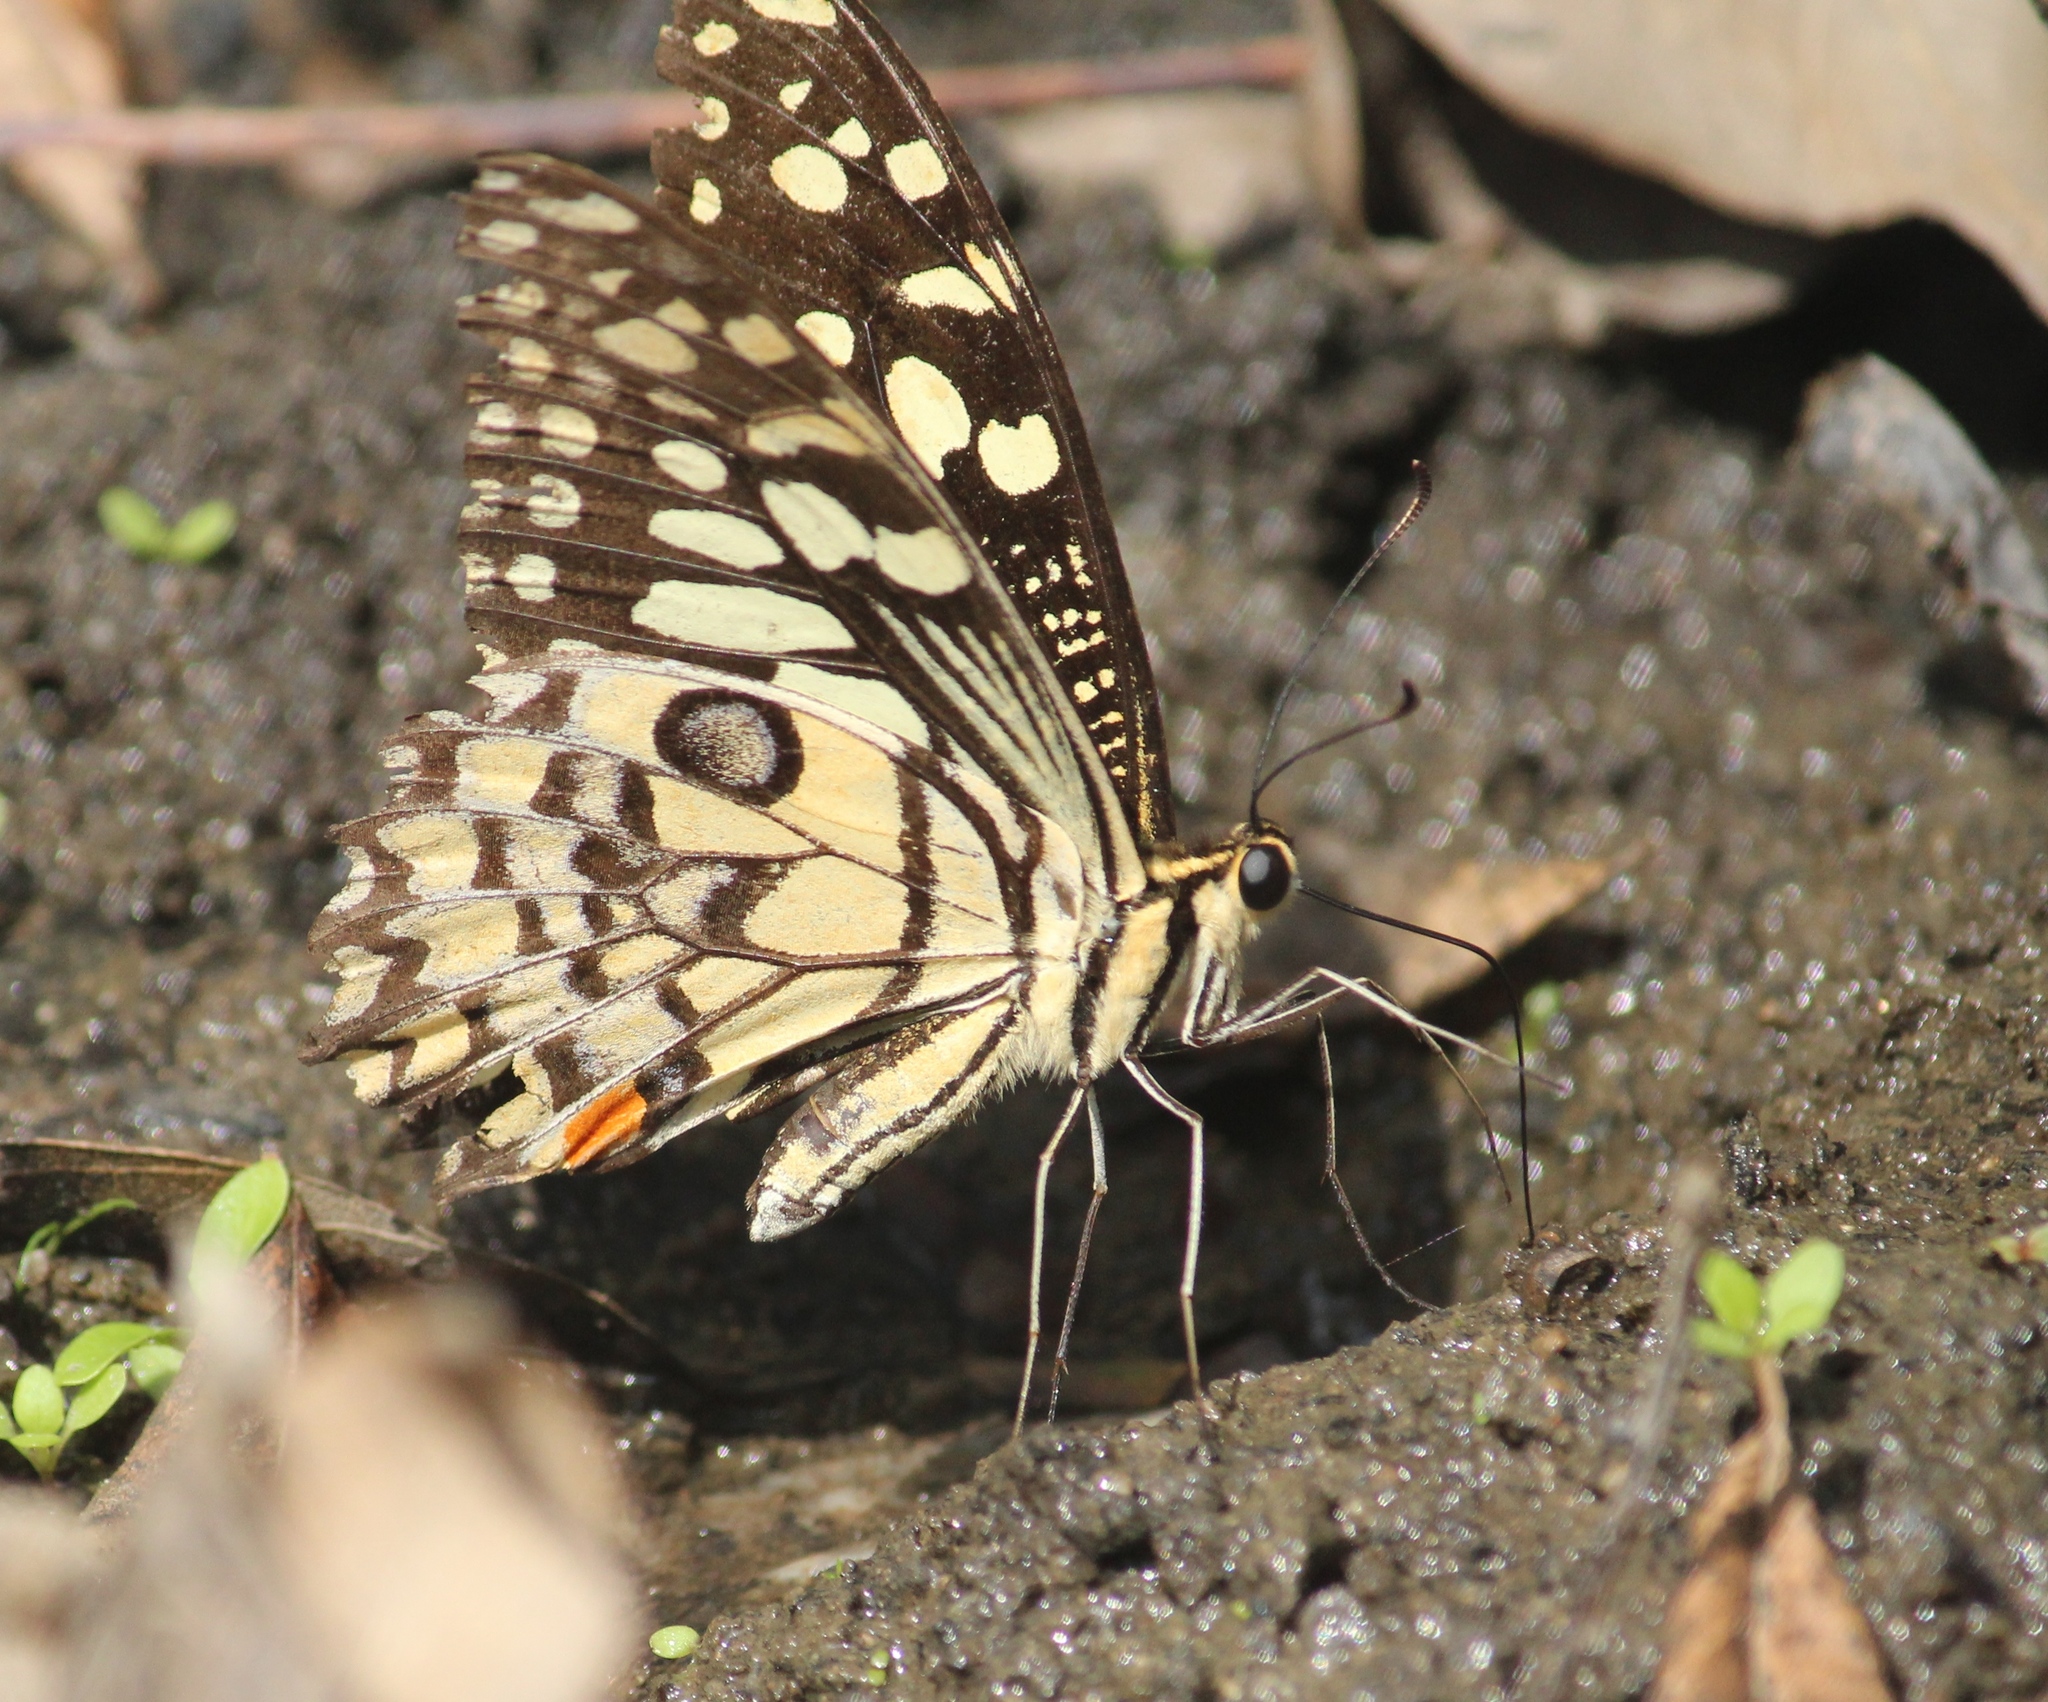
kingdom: Animalia
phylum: Arthropoda
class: Insecta
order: Lepidoptera
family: Papilionidae
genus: Papilio
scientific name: Papilio demoleus
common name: Lime butterfly
